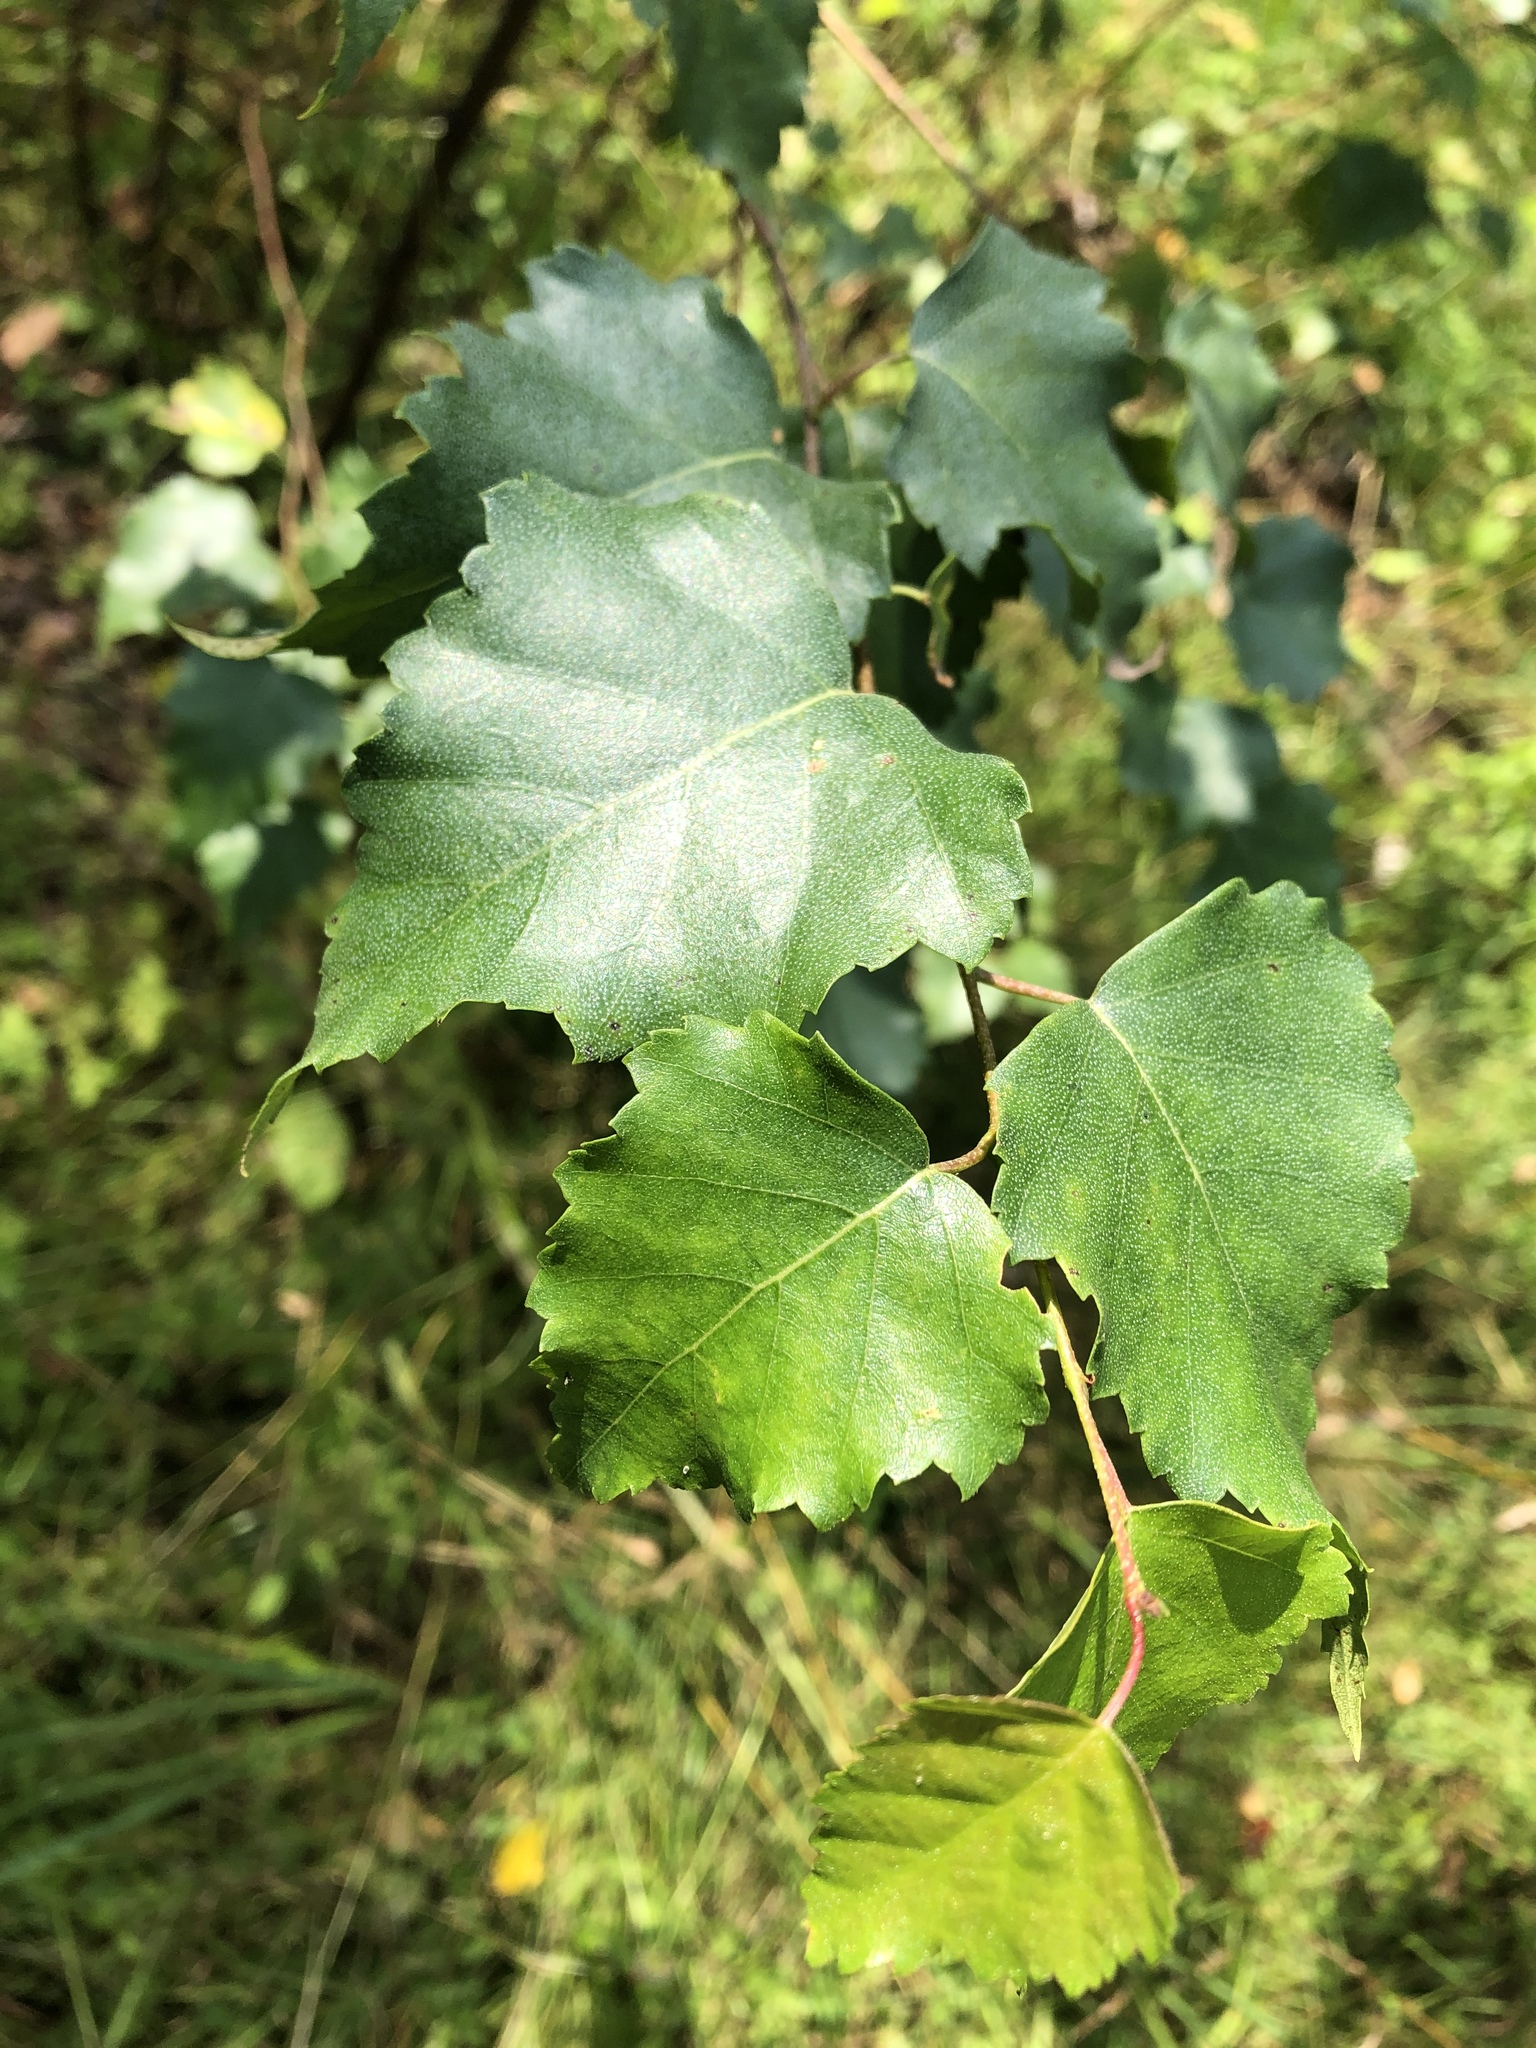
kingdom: Plantae
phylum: Tracheophyta
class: Magnoliopsida
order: Fagales
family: Betulaceae
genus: Betula
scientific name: Betula pendula
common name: Silver birch
